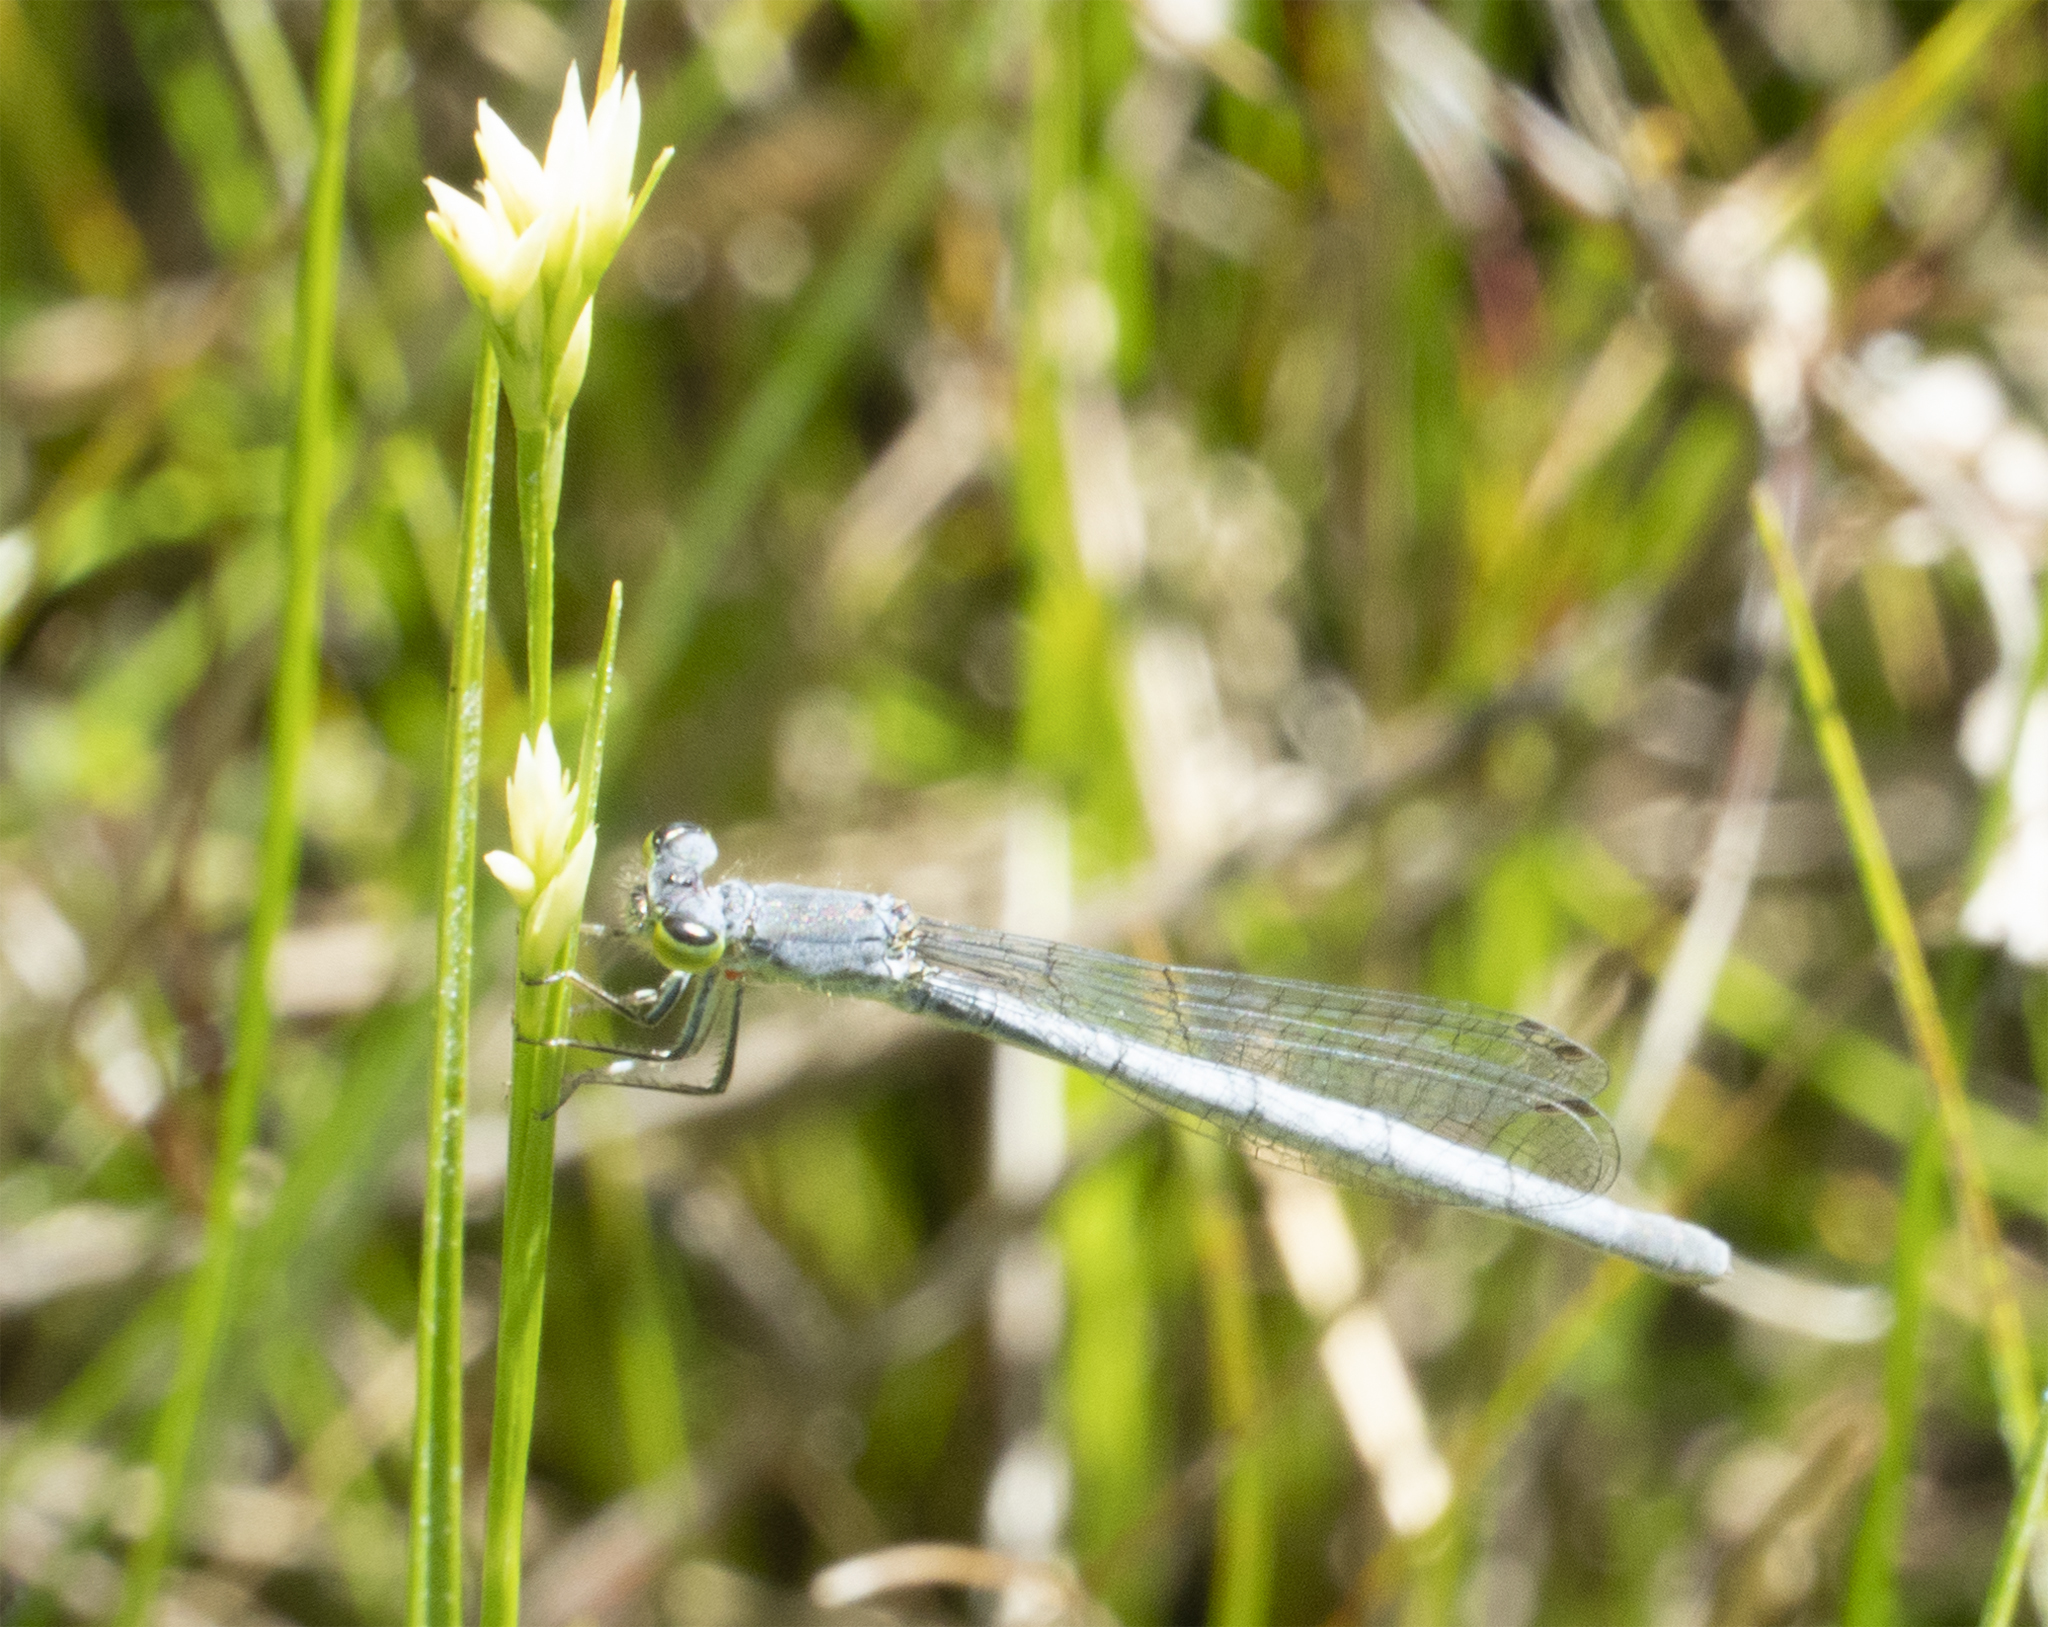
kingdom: Animalia
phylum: Arthropoda
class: Insecta
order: Odonata
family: Coenagrionidae
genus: Ischnura
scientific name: Ischnura perparva
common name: Western forktail
